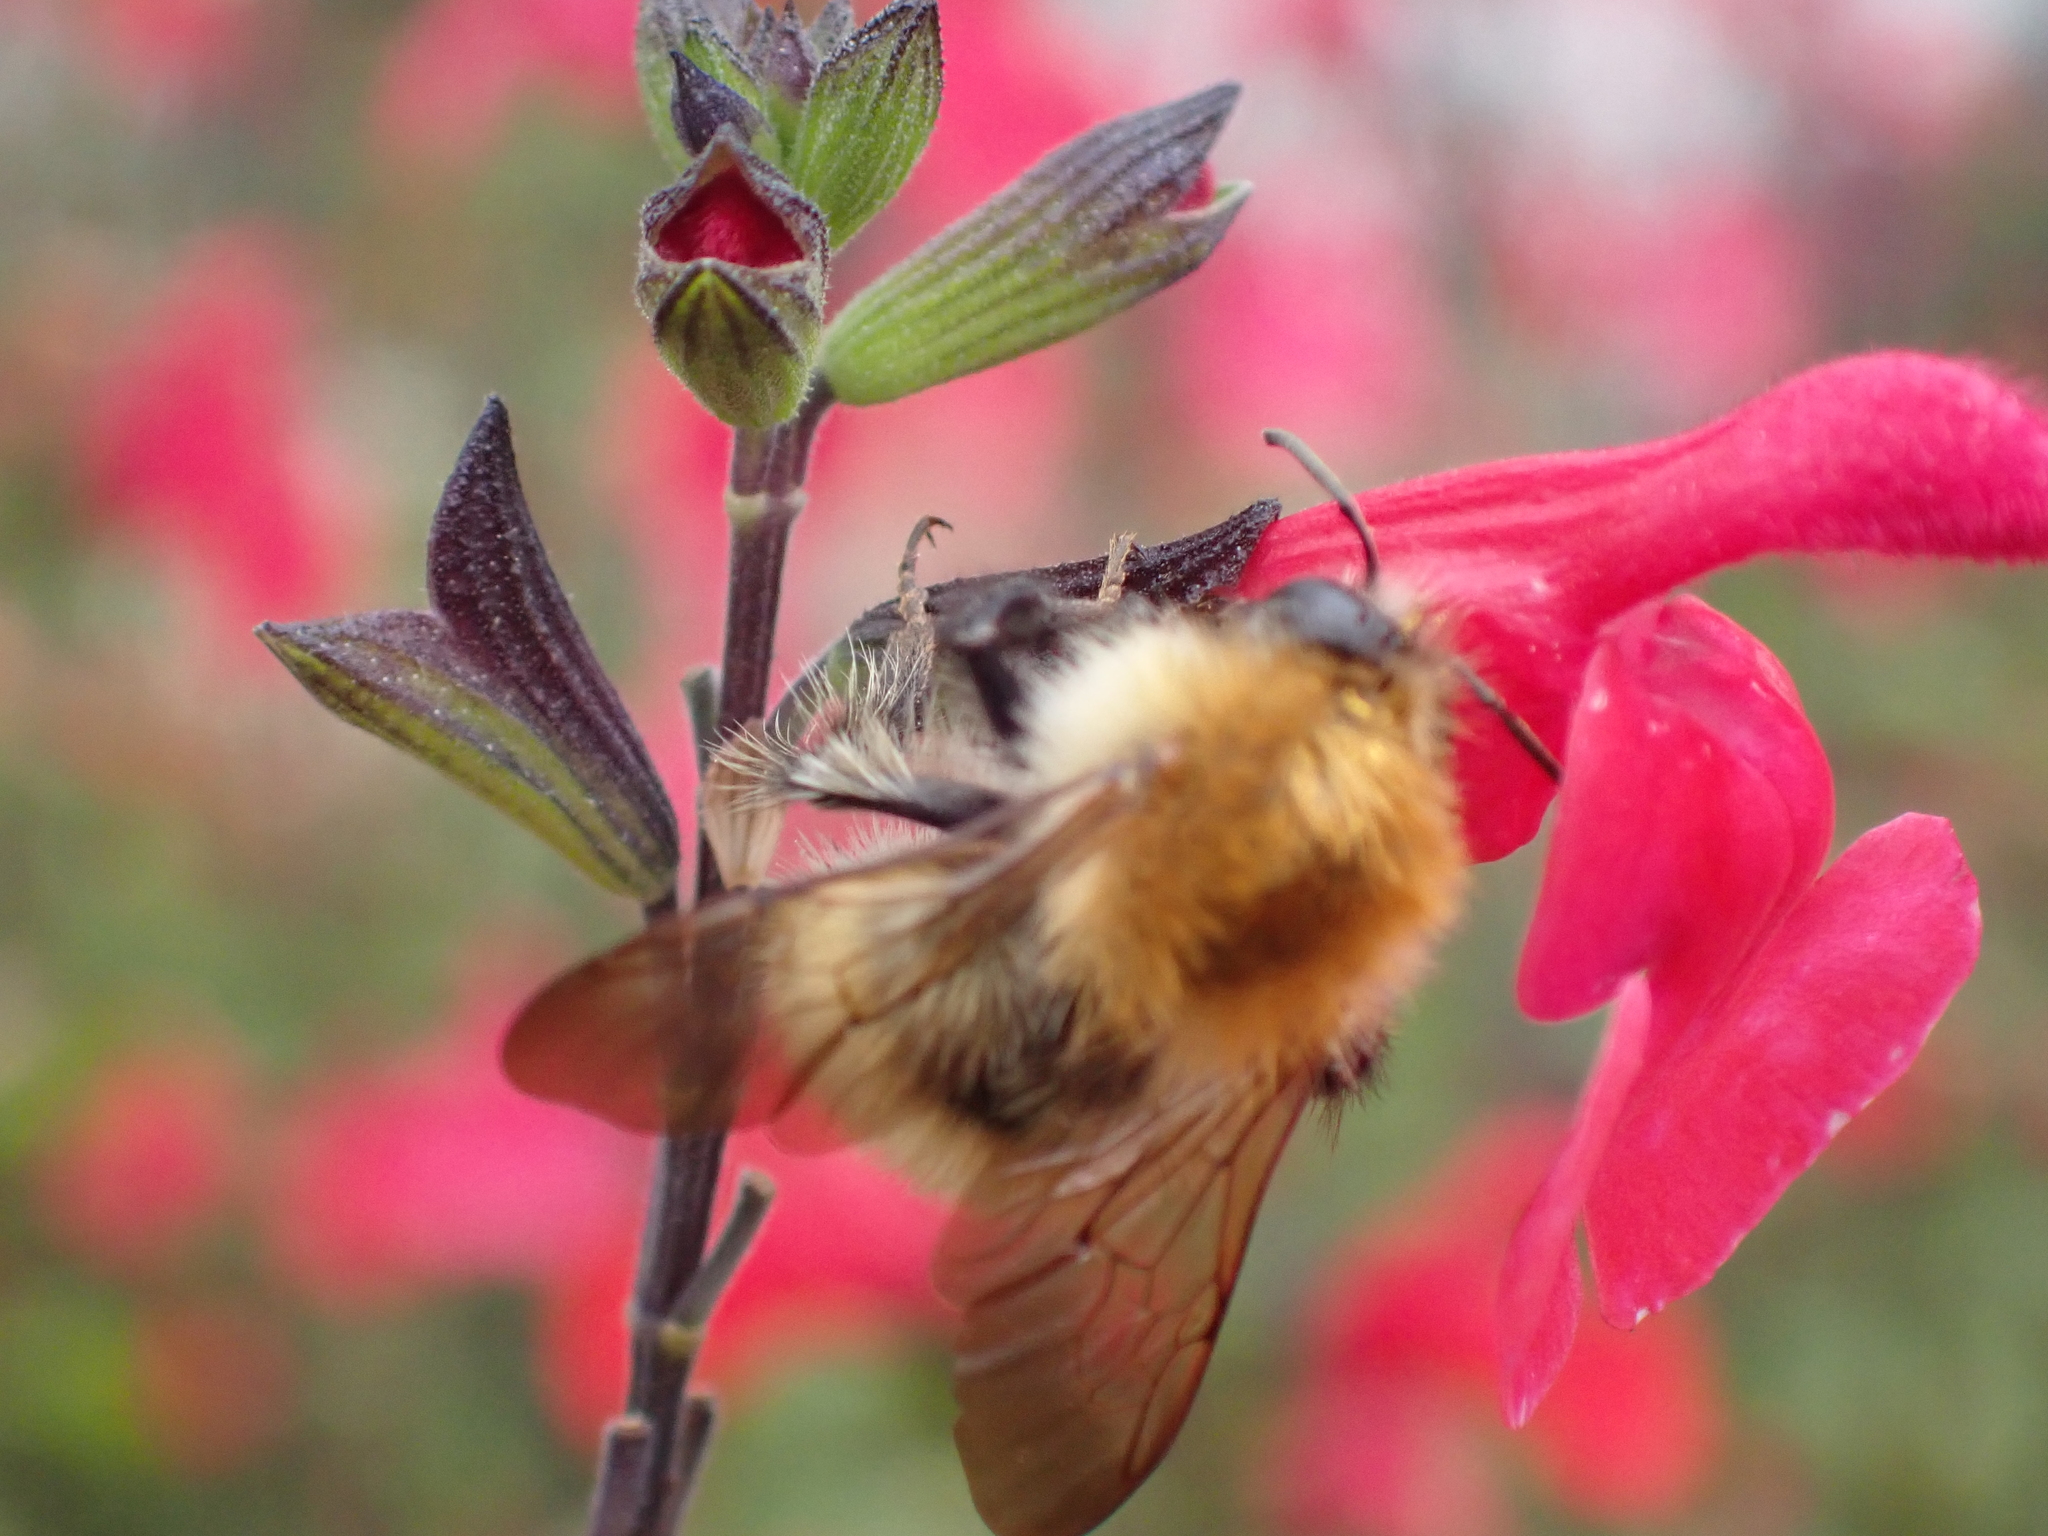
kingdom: Animalia
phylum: Arthropoda
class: Insecta
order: Hymenoptera
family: Apidae
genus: Bombus
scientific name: Bombus pascuorum
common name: Common carder bee
